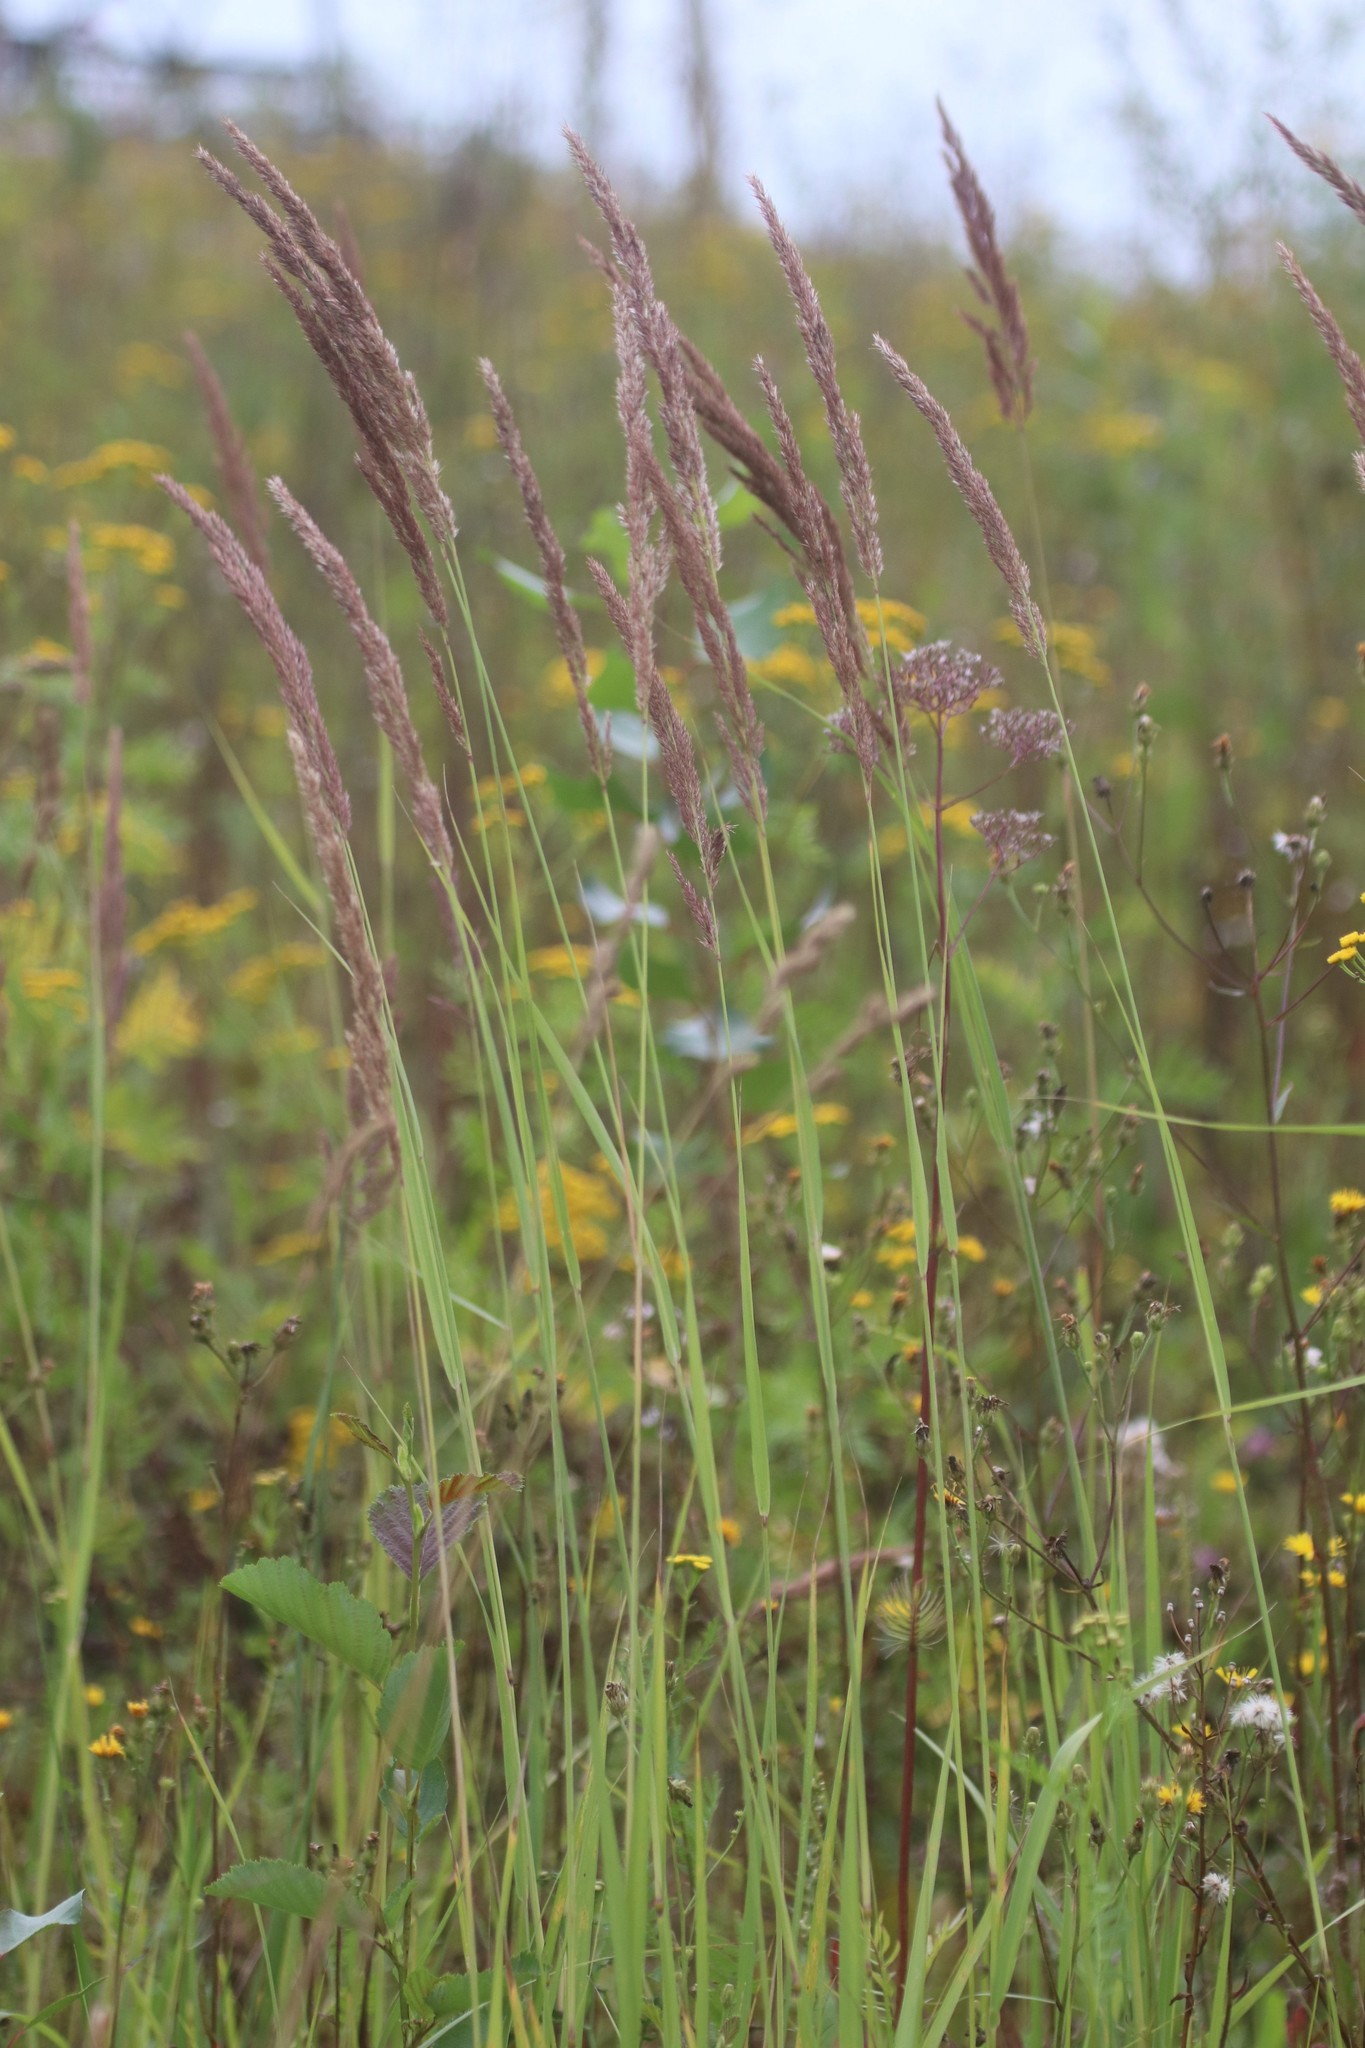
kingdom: Plantae
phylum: Tracheophyta
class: Liliopsida
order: Poales
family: Poaceae
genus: Calamagrostis
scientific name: Calamagrostis epigejos
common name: Wood small-reed
